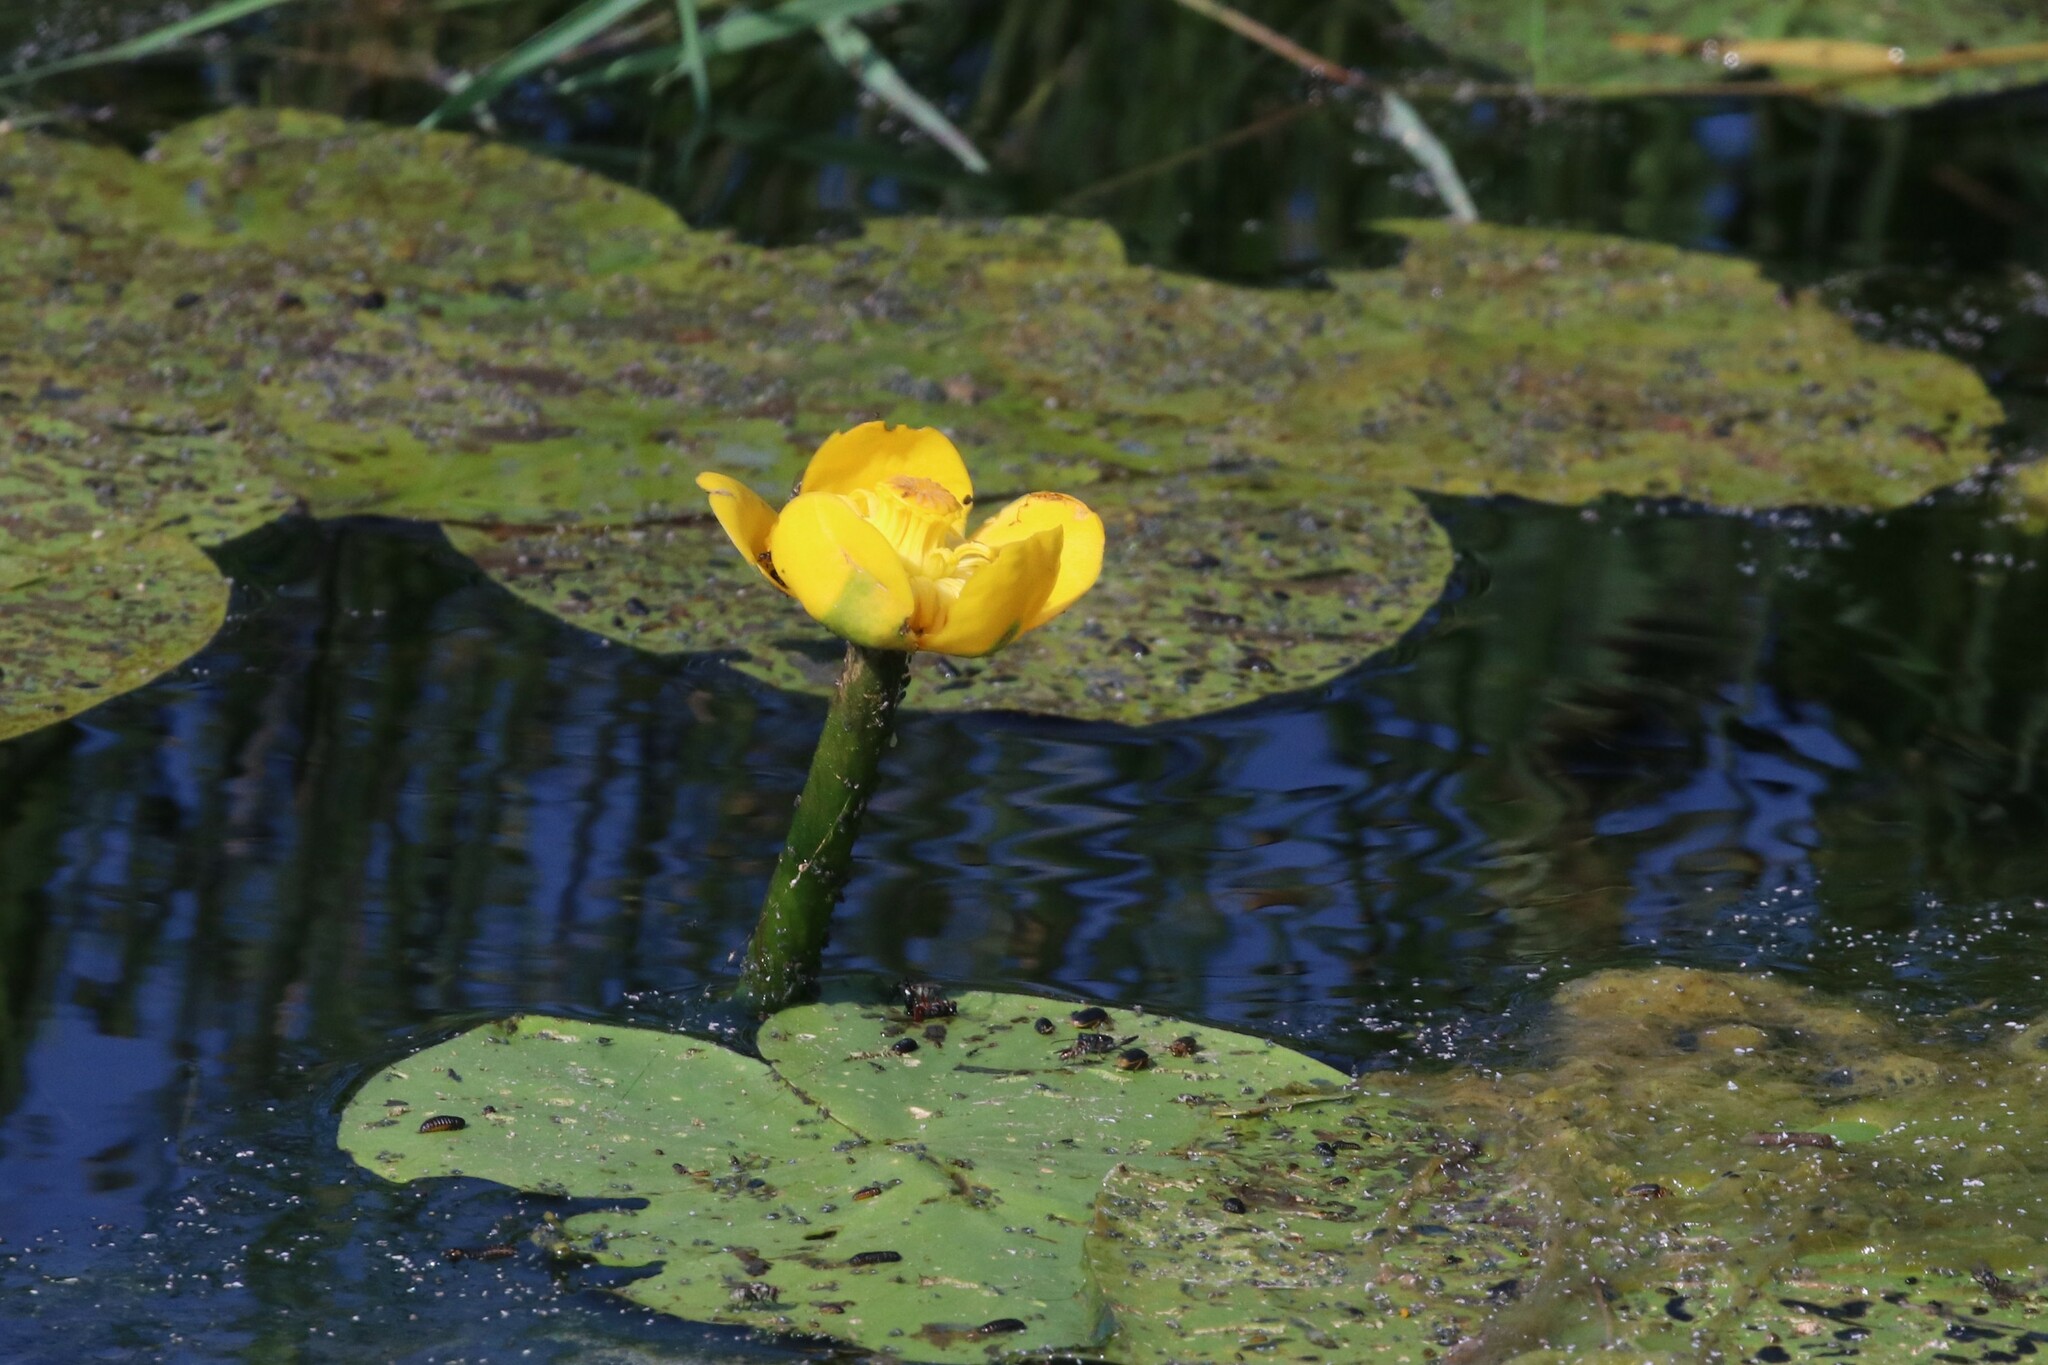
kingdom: Plantae
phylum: Tracheophyta
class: Magnoliopsida
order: Nymphaeales
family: Nymphaeaceae
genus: Nuphar
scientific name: Nuphar lutea
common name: Yellow water-lily
